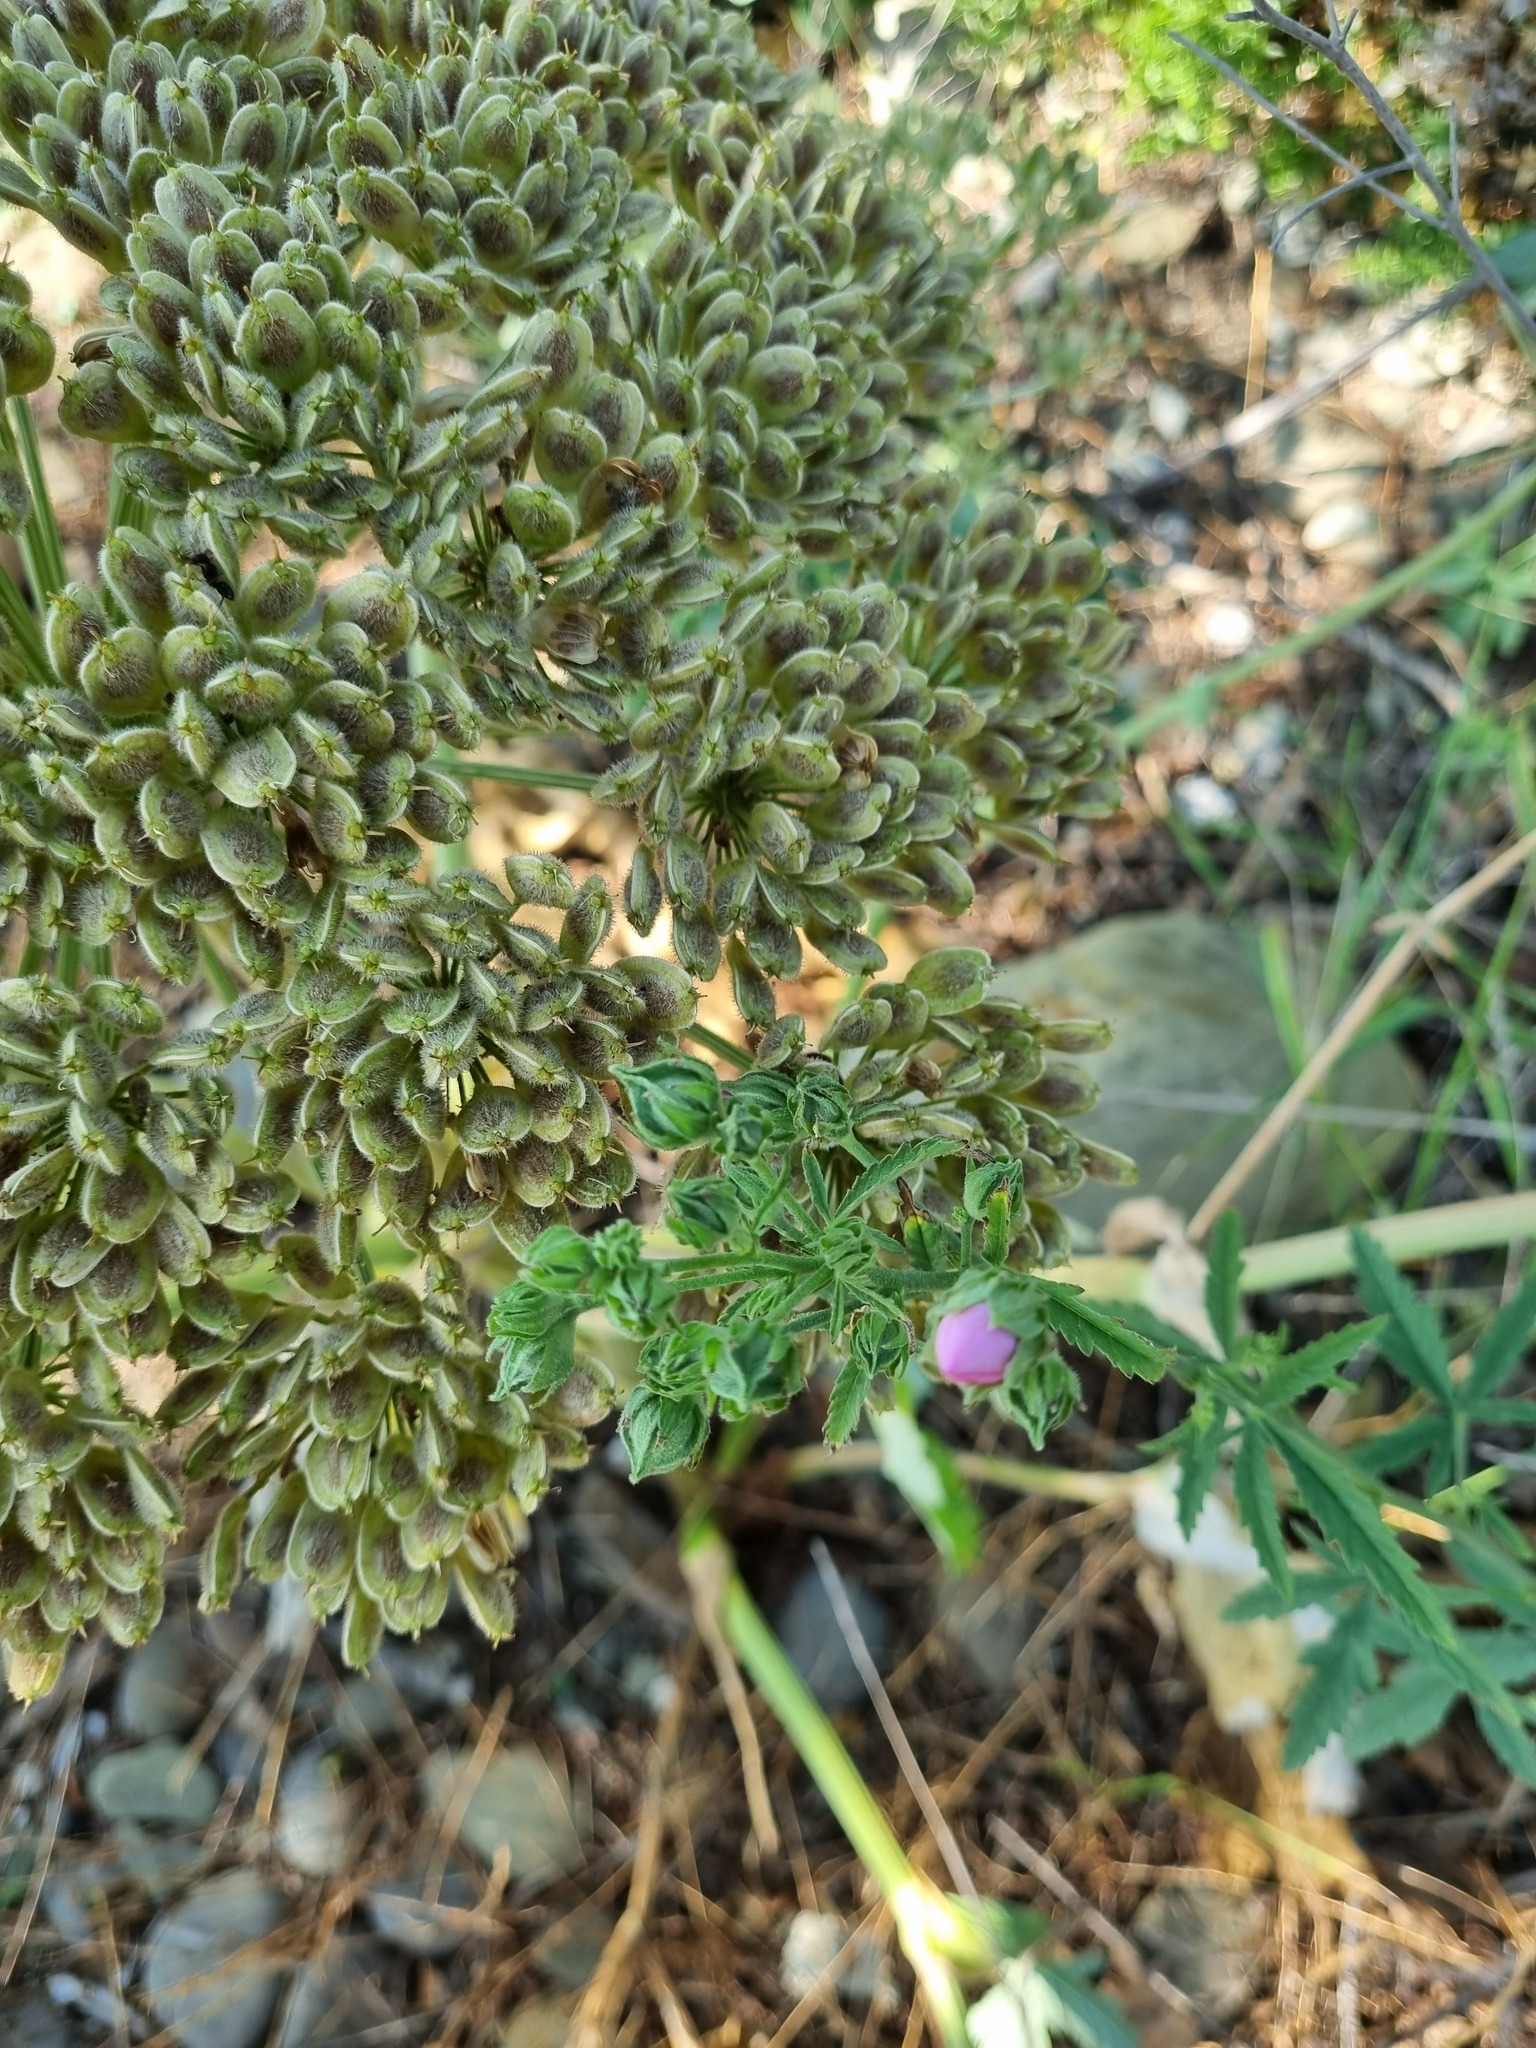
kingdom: Plantae
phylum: Tracheophyta
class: Magnoliopsida
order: Apiales
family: Apiaceae
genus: Heracleum
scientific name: Heracleum stevenii
